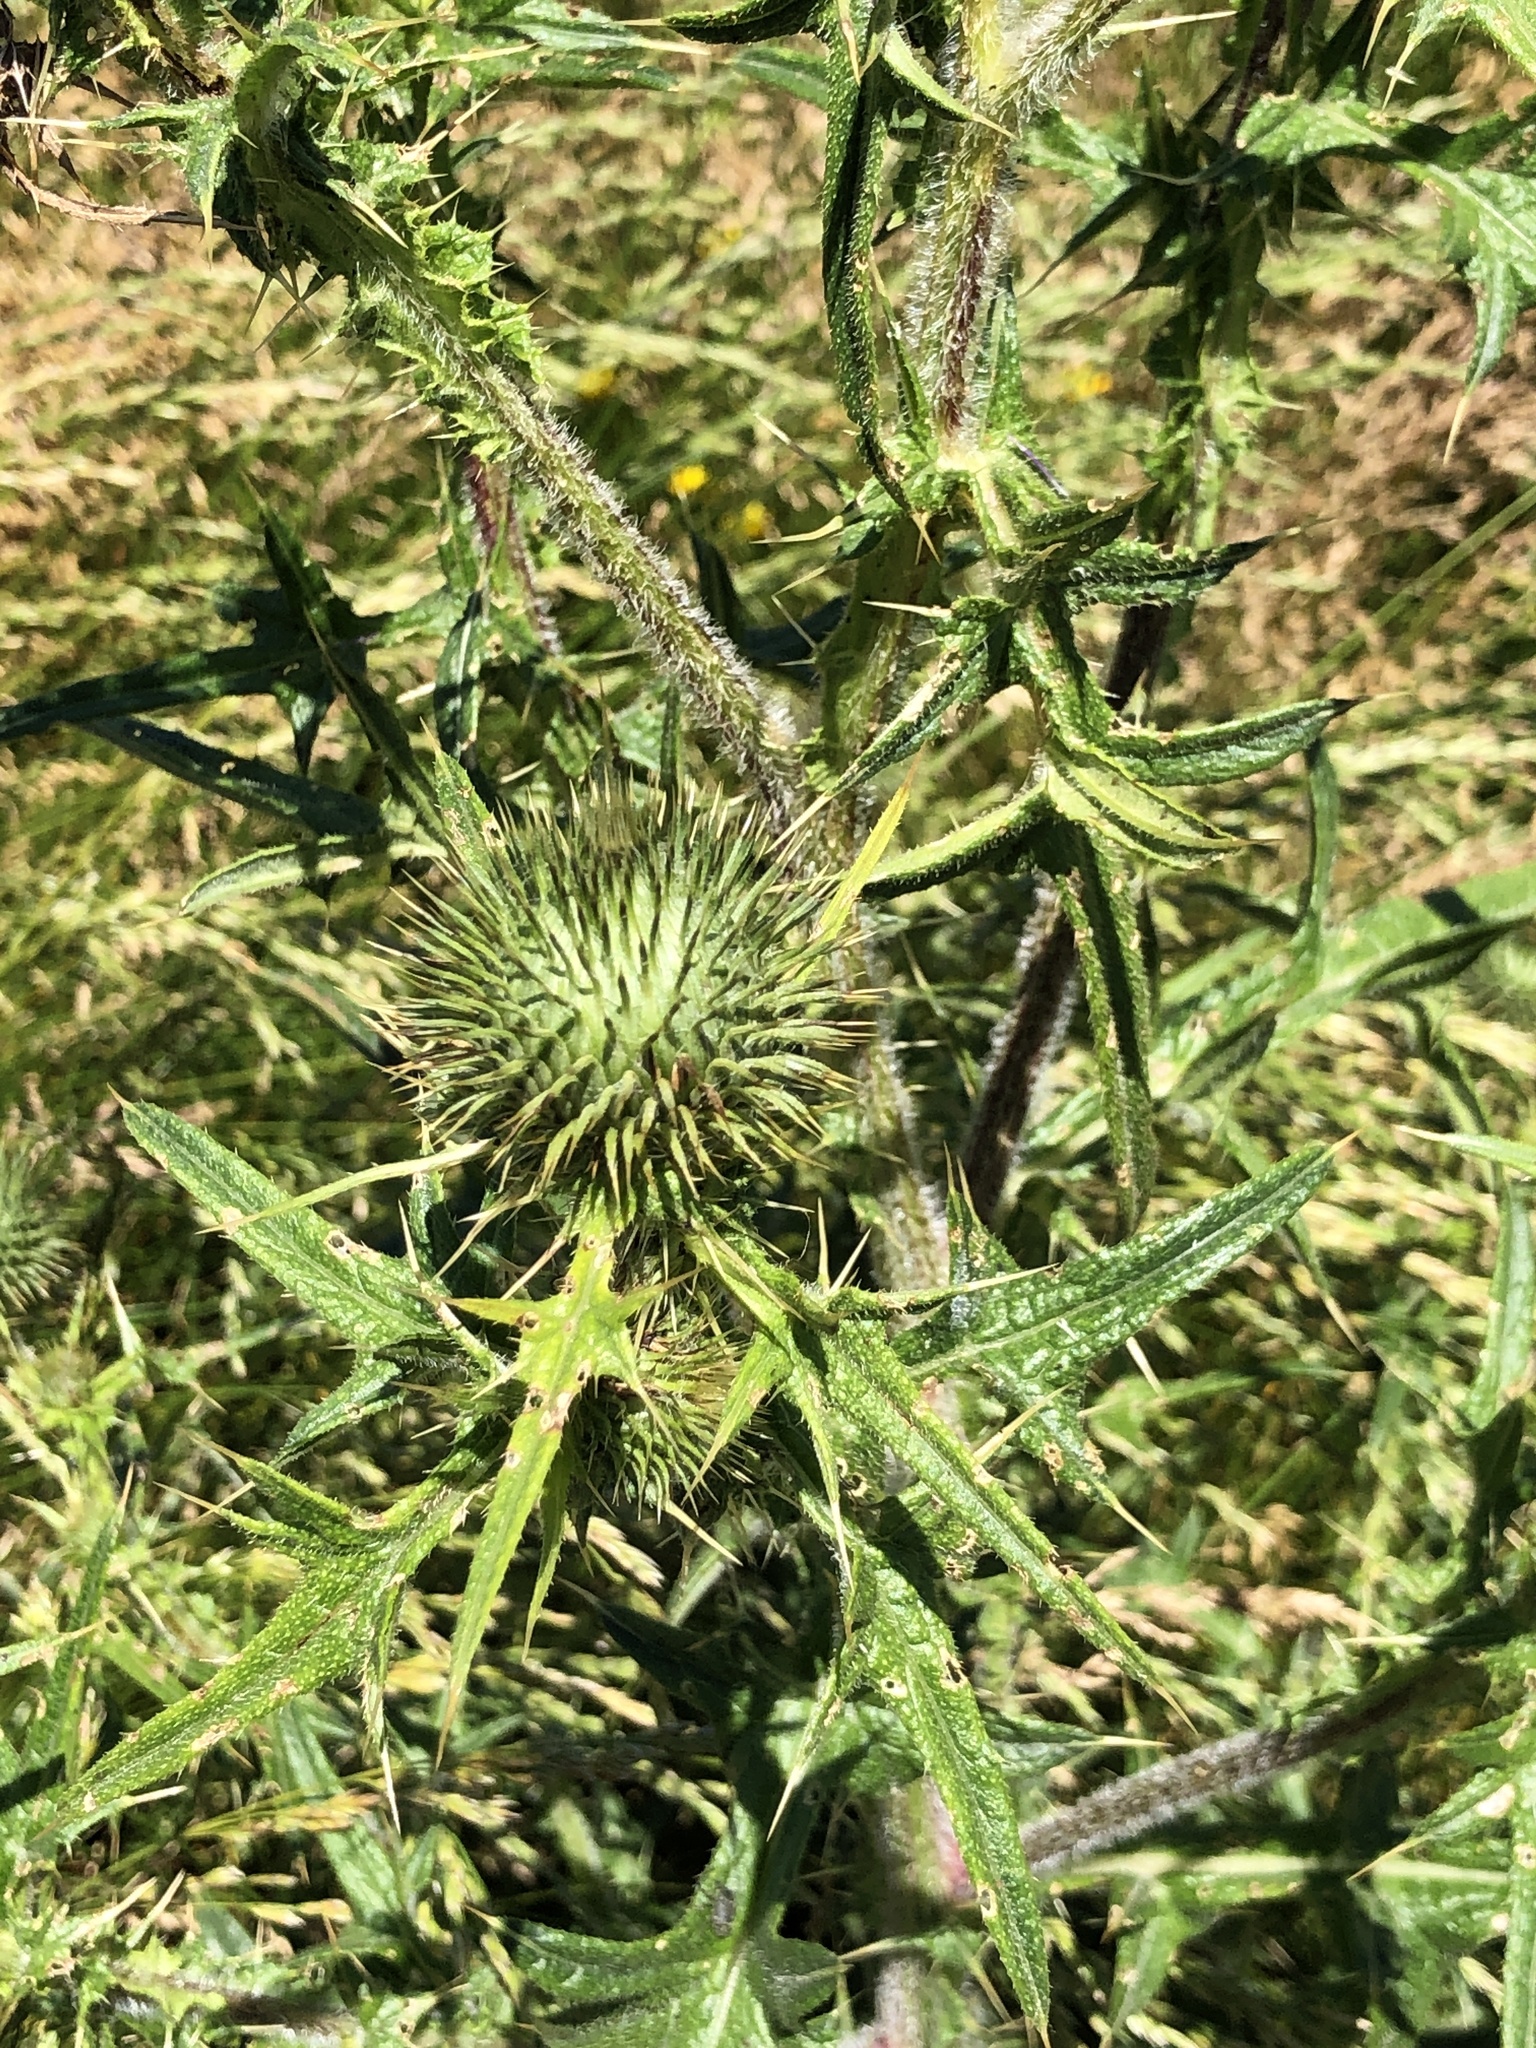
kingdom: Plantae
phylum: Tracheophyta
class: Magnoliopsida
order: Asterales
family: Asteraceae
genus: Cirsium
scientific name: Cirsium vulgare
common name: Bull thistle
